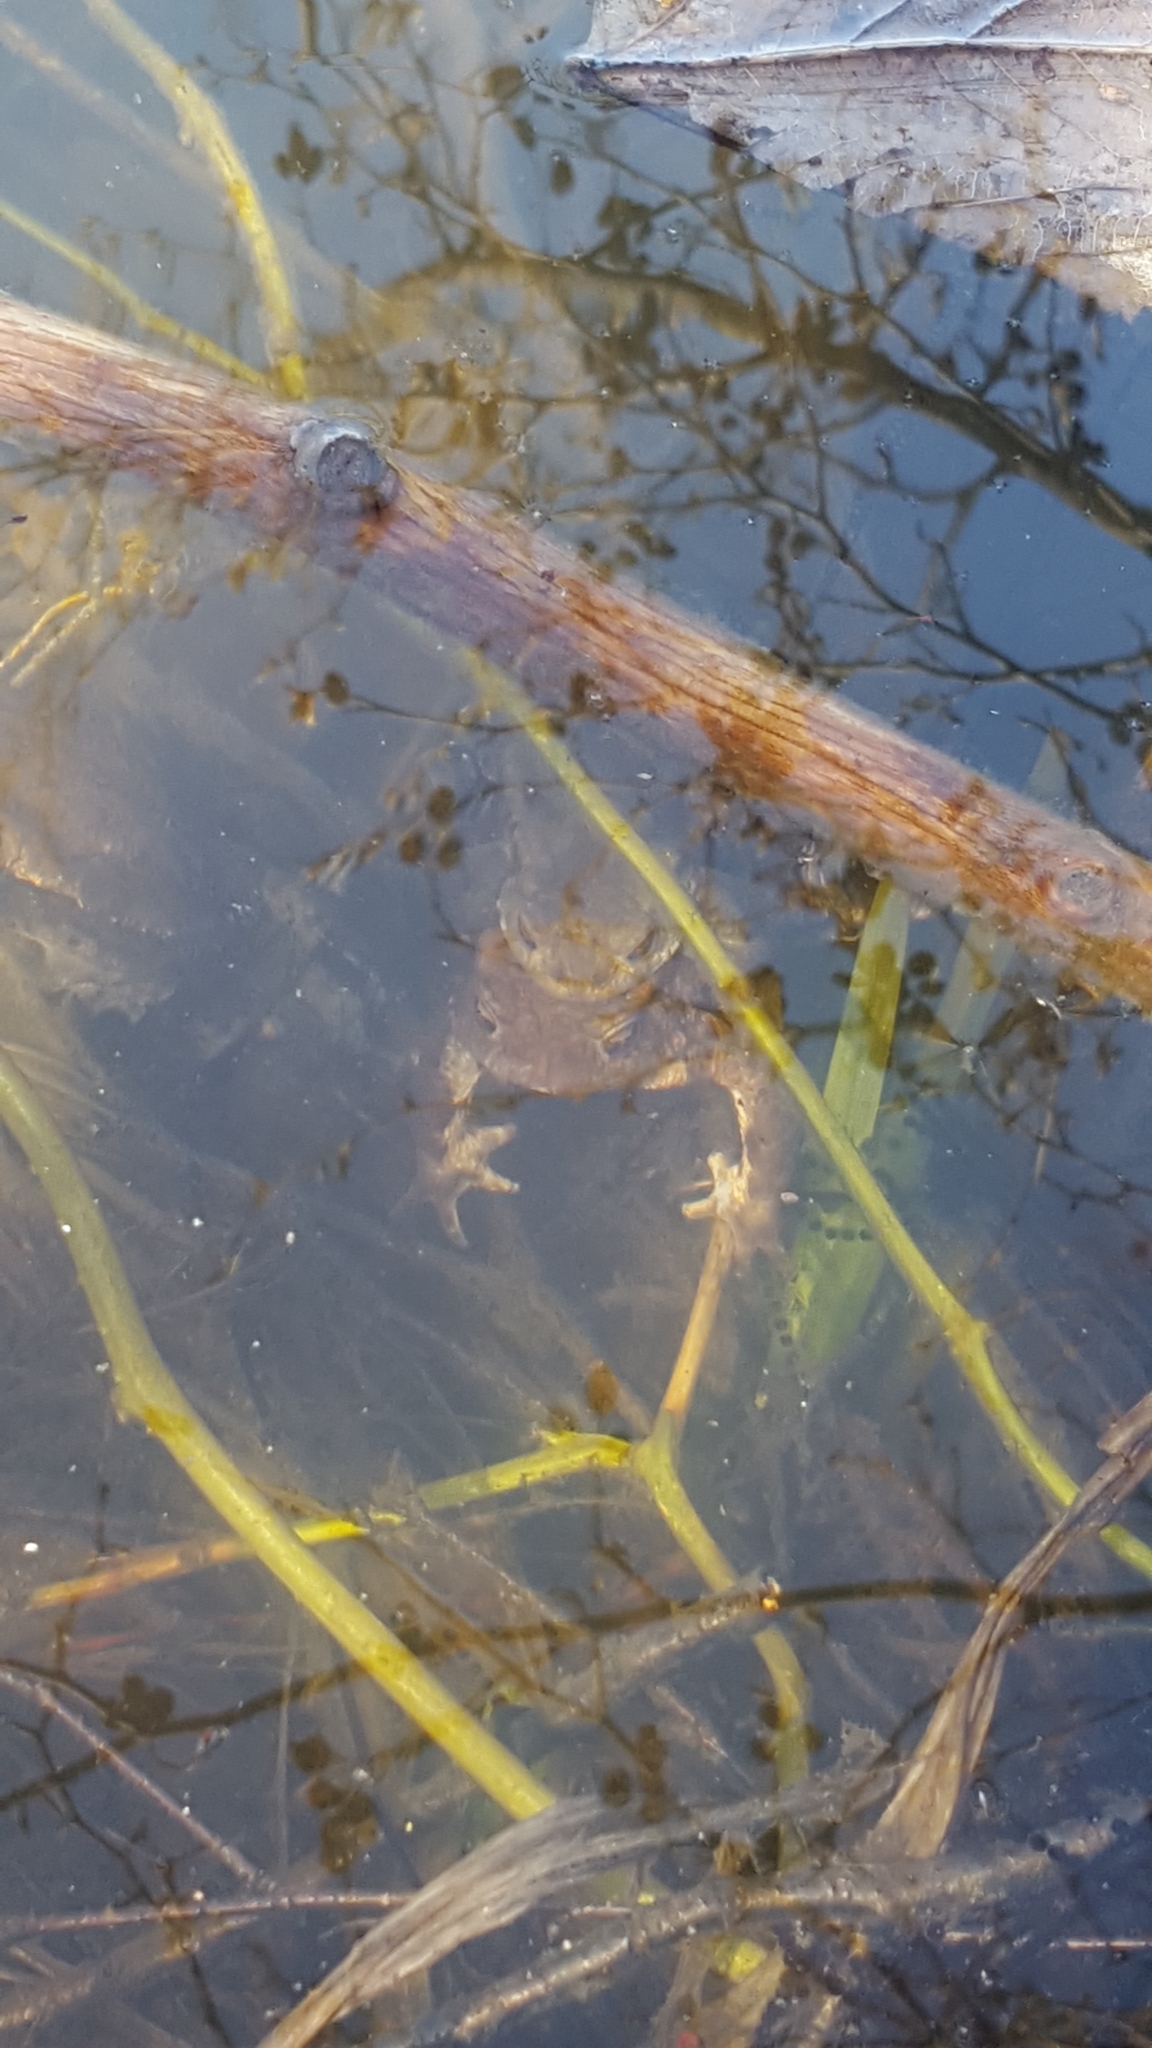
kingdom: Animalia
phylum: Chordata
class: Amphibia
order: Anura
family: Bufonidae
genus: Bufo
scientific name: Bufo bufo
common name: Common toad
